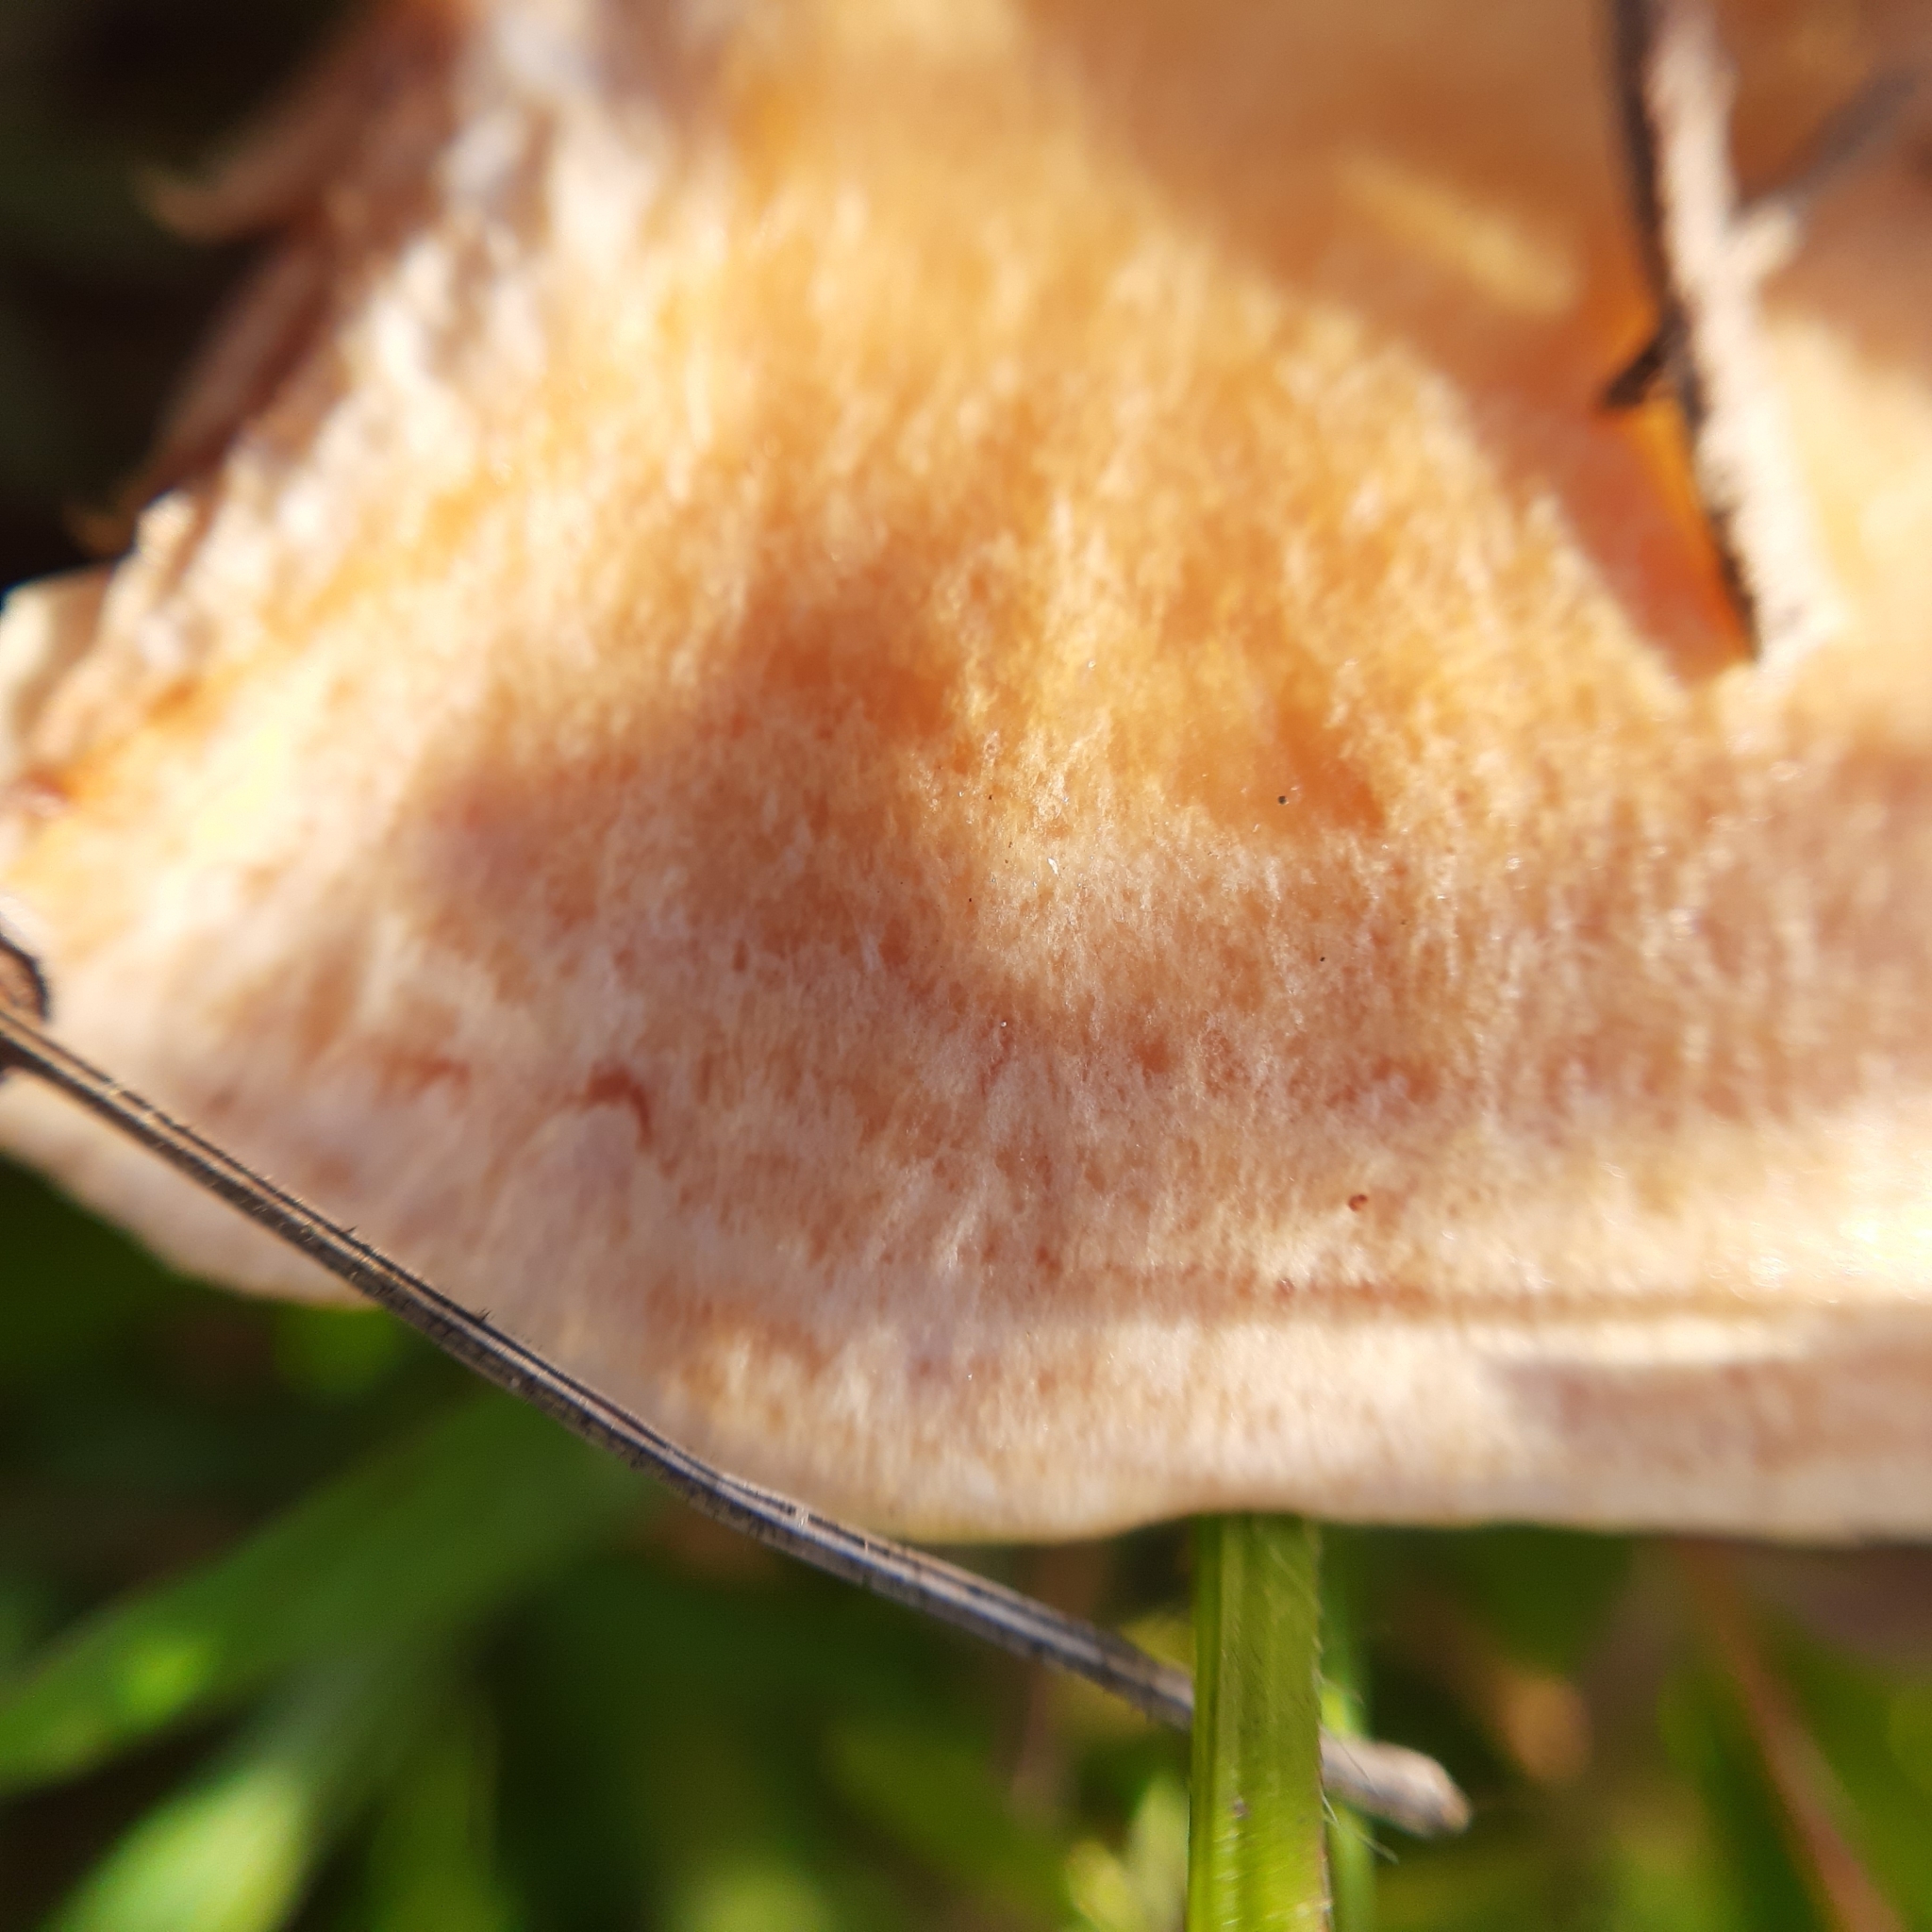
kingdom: Fungi
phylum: Basidiomycota
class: Agaricomycetes
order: Russulales
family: Russulaceae
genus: Lactarius
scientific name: Lactarius
